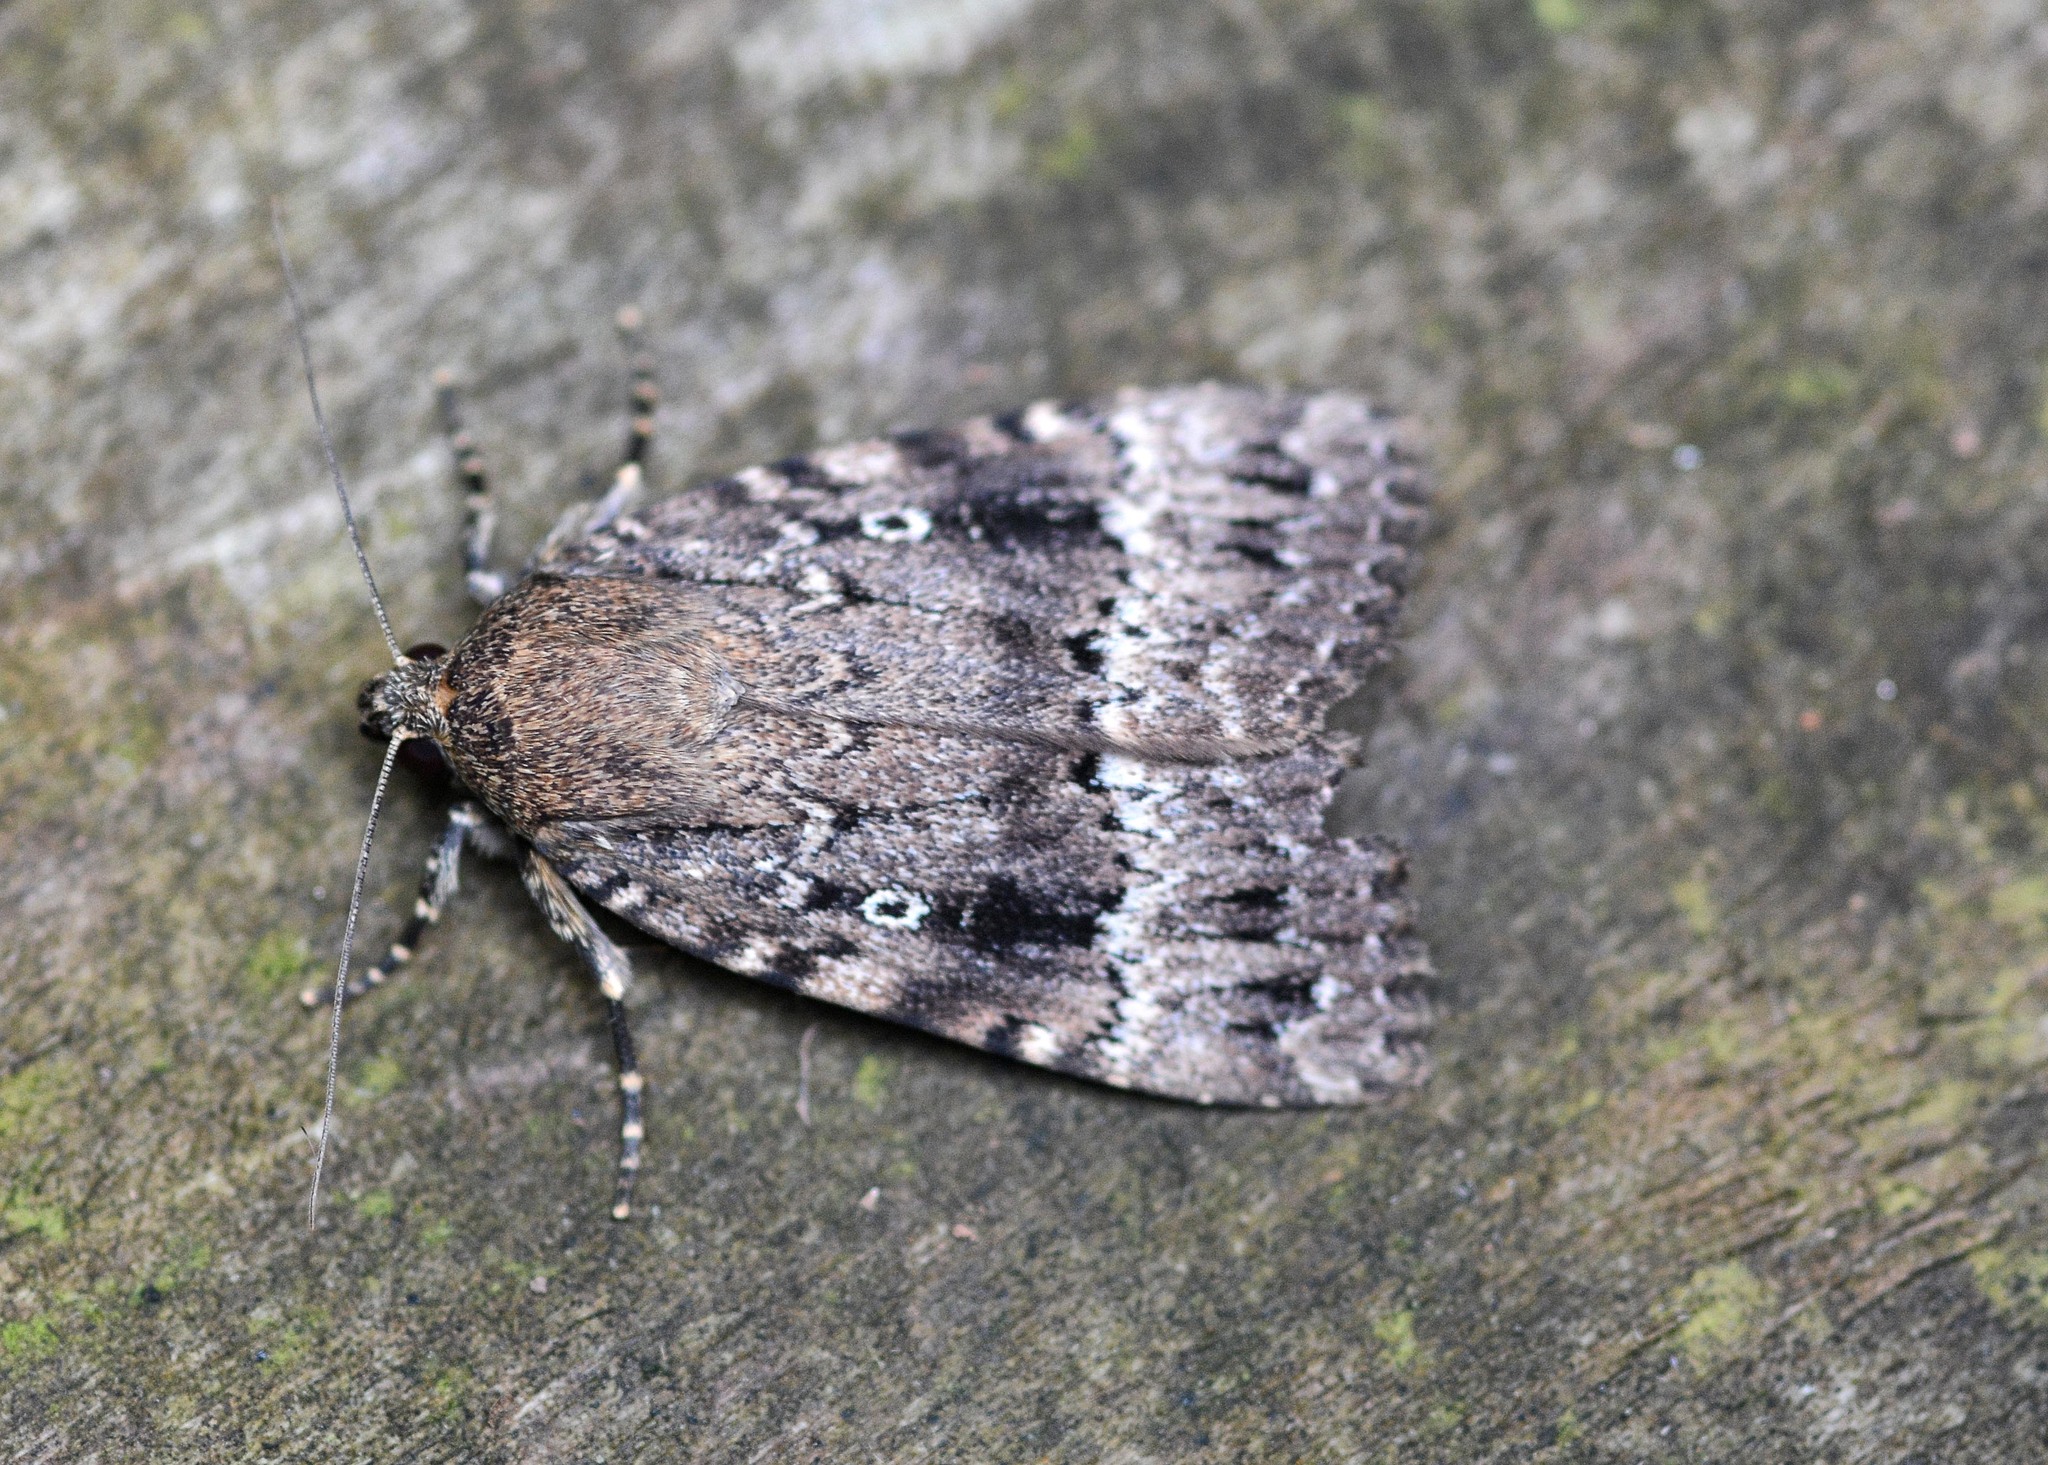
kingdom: Animalia
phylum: Arthropoda
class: Insecta
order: Lepidoptera
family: Noctuidae
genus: Amphipyra
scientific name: Amphipyra
